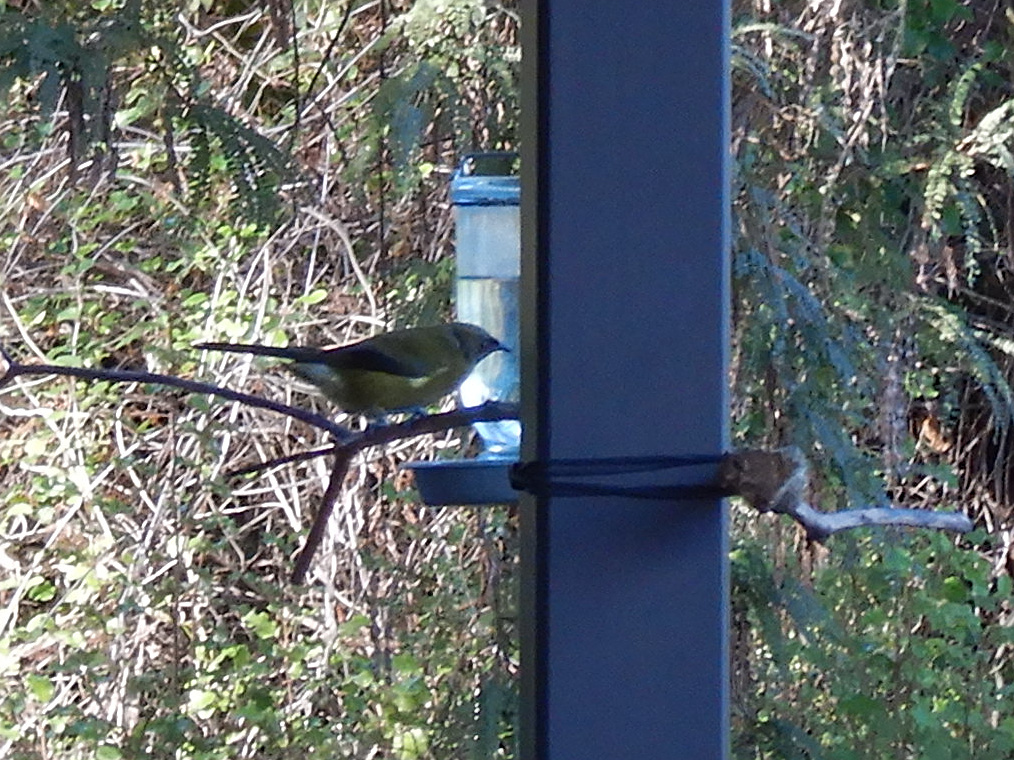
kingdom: Animalia
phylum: Chordata
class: Aves
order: Passeriformes
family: Meliphagidae
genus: Anthornis
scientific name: Anthornis melanura
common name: New zealand bellbird
